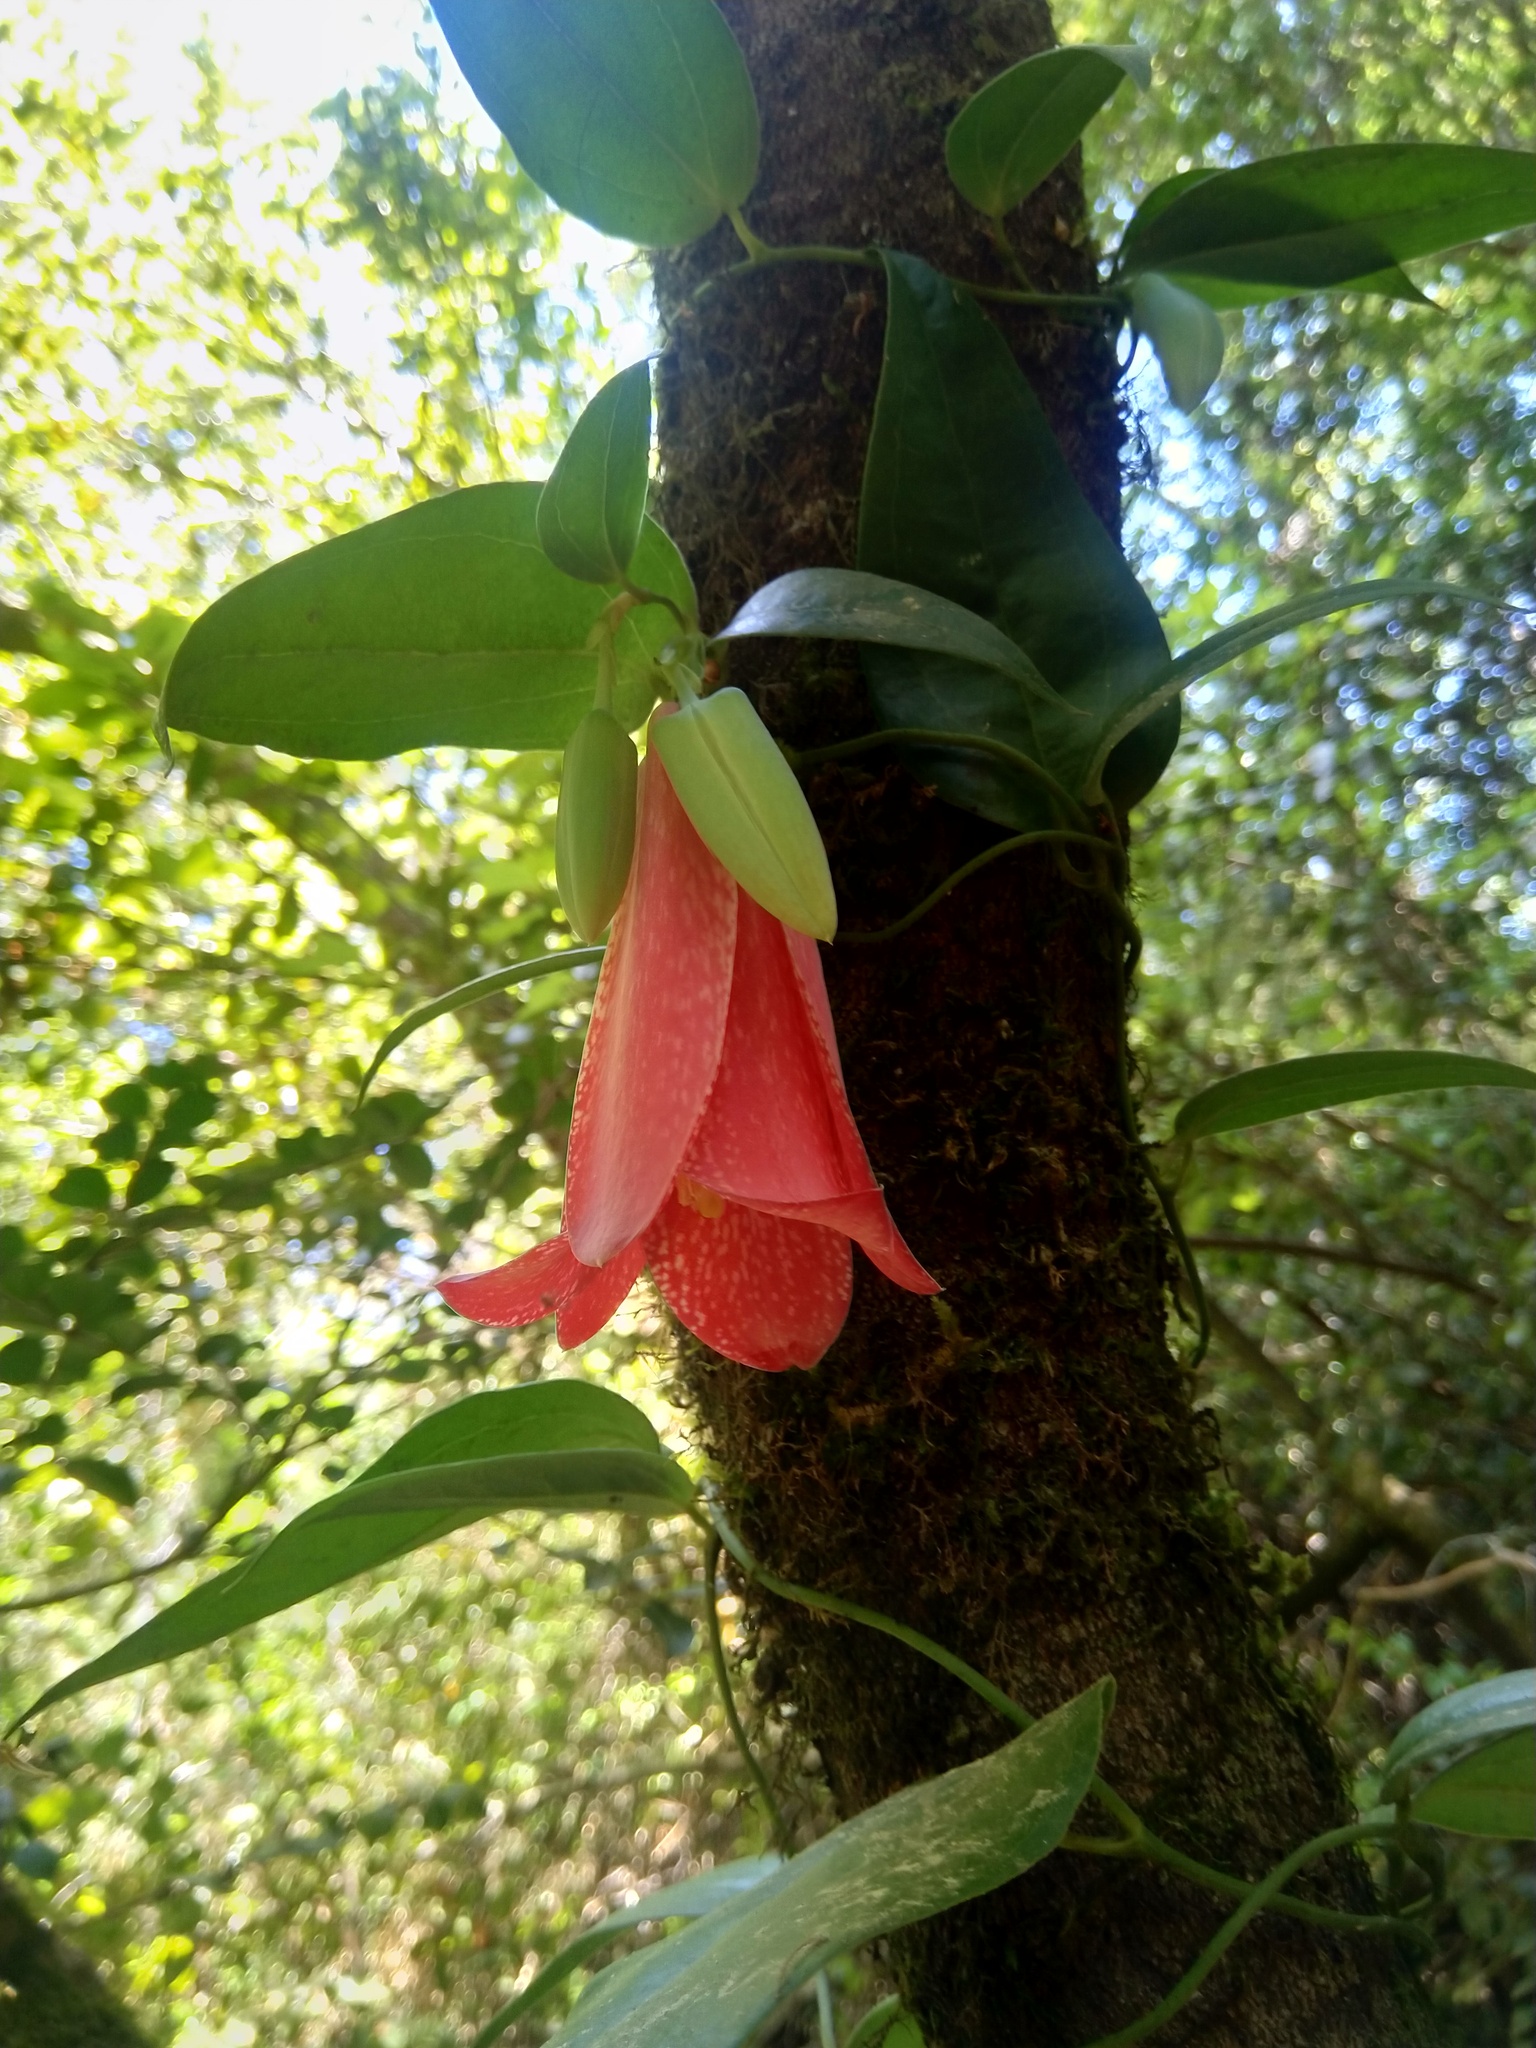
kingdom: Plantae
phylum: Tracheophyta
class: Liliopsida
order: Liliales
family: Philesiaceae
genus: Lapageria
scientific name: Lapageria rosea
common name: Chilean-bellflower
